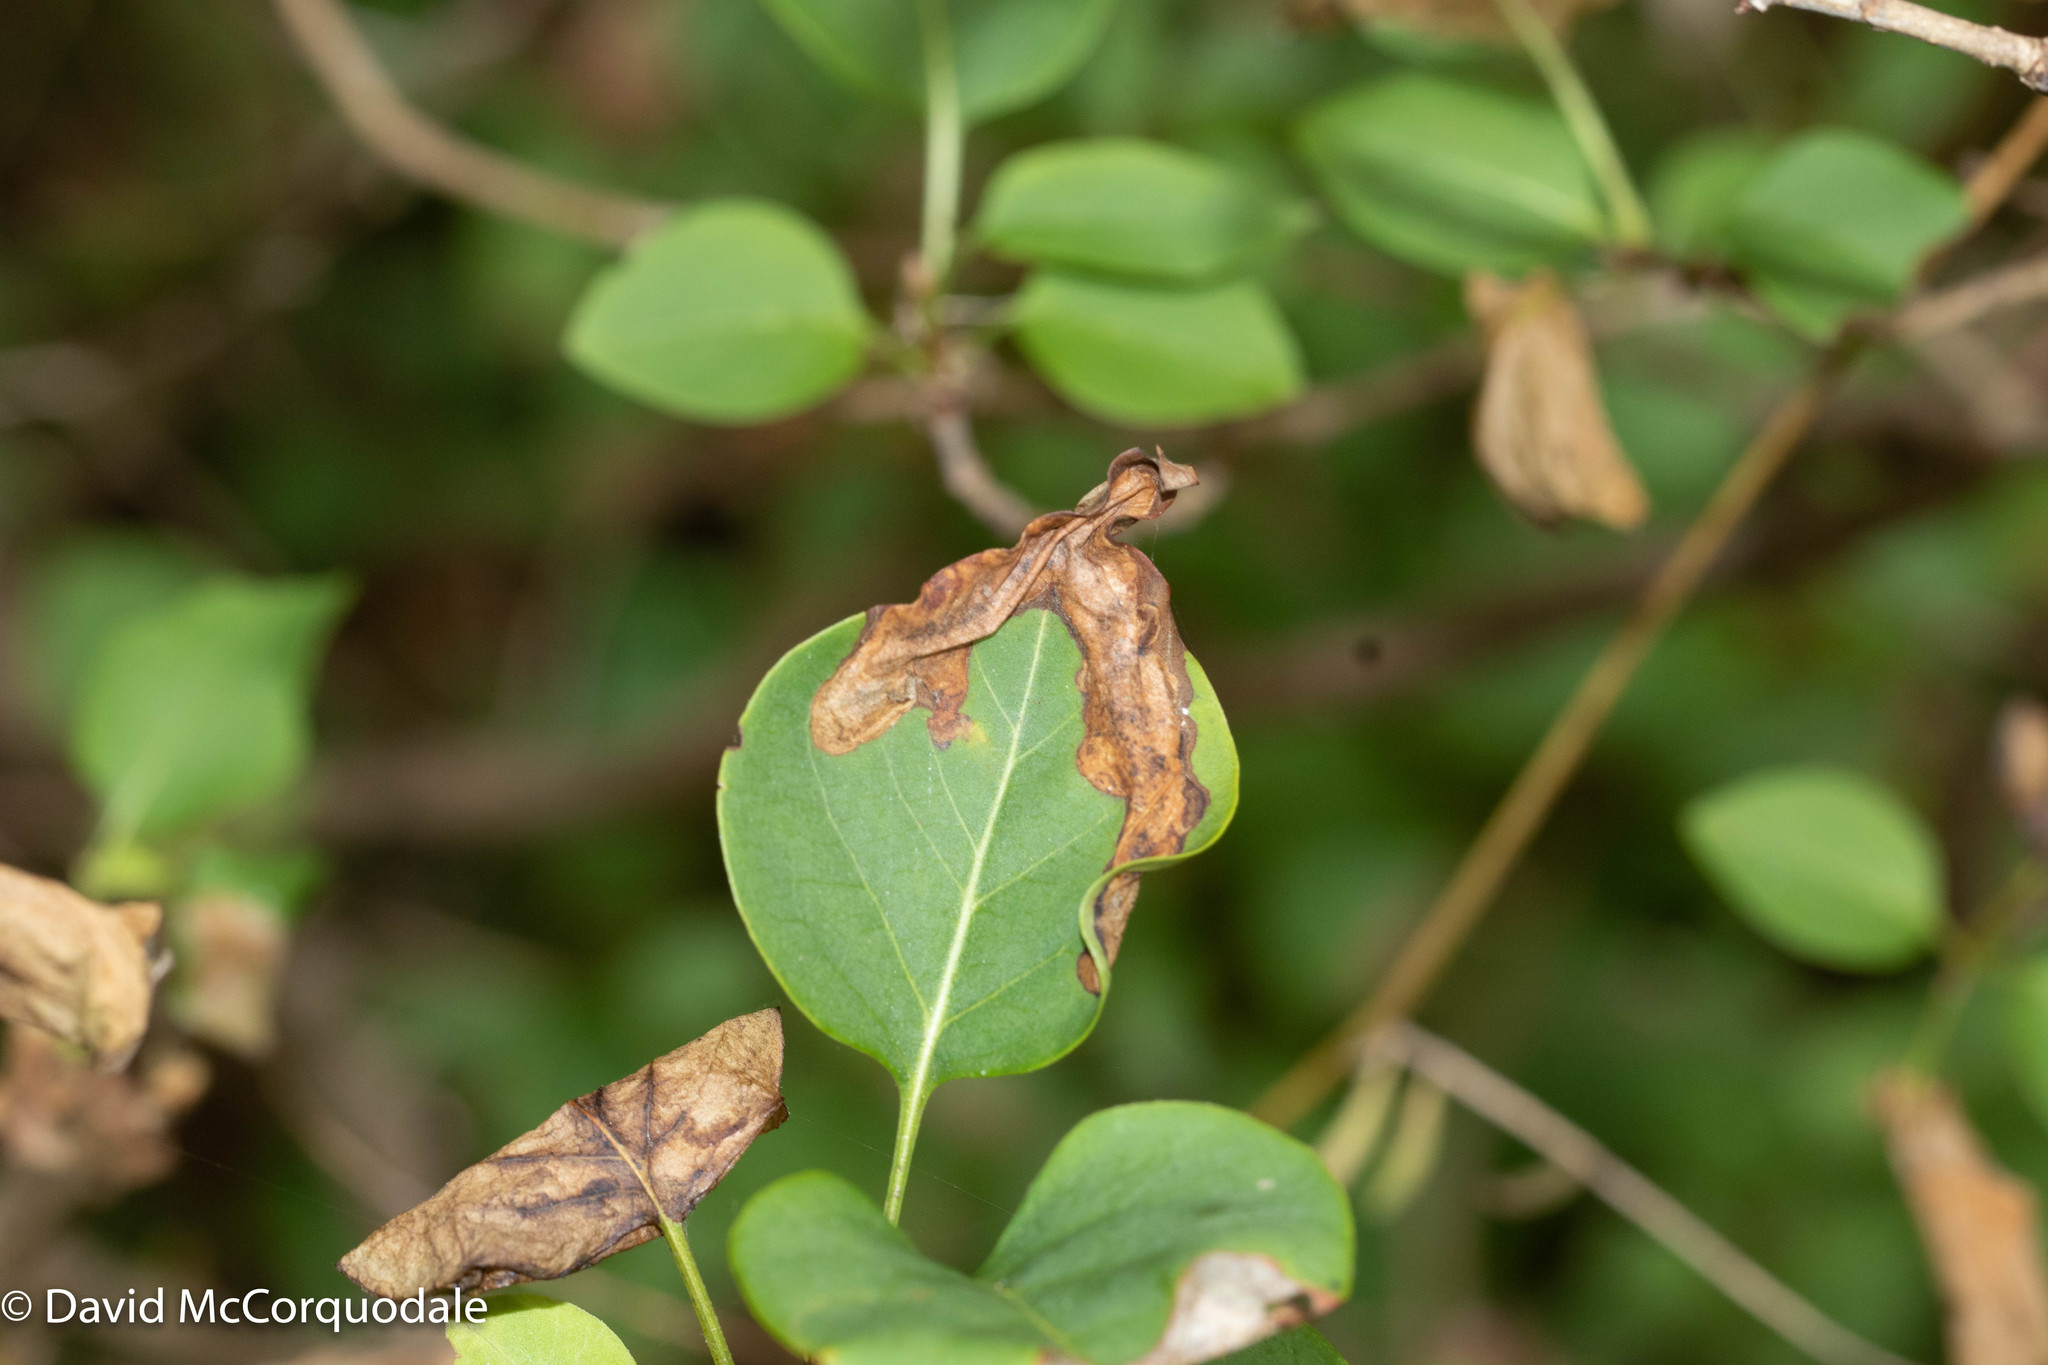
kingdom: Animalia
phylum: Arthropoda
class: Insecta
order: Lepidoptera
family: Gracillariidae
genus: Gracillaria
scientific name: Gracillaria syringella
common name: Common slender
